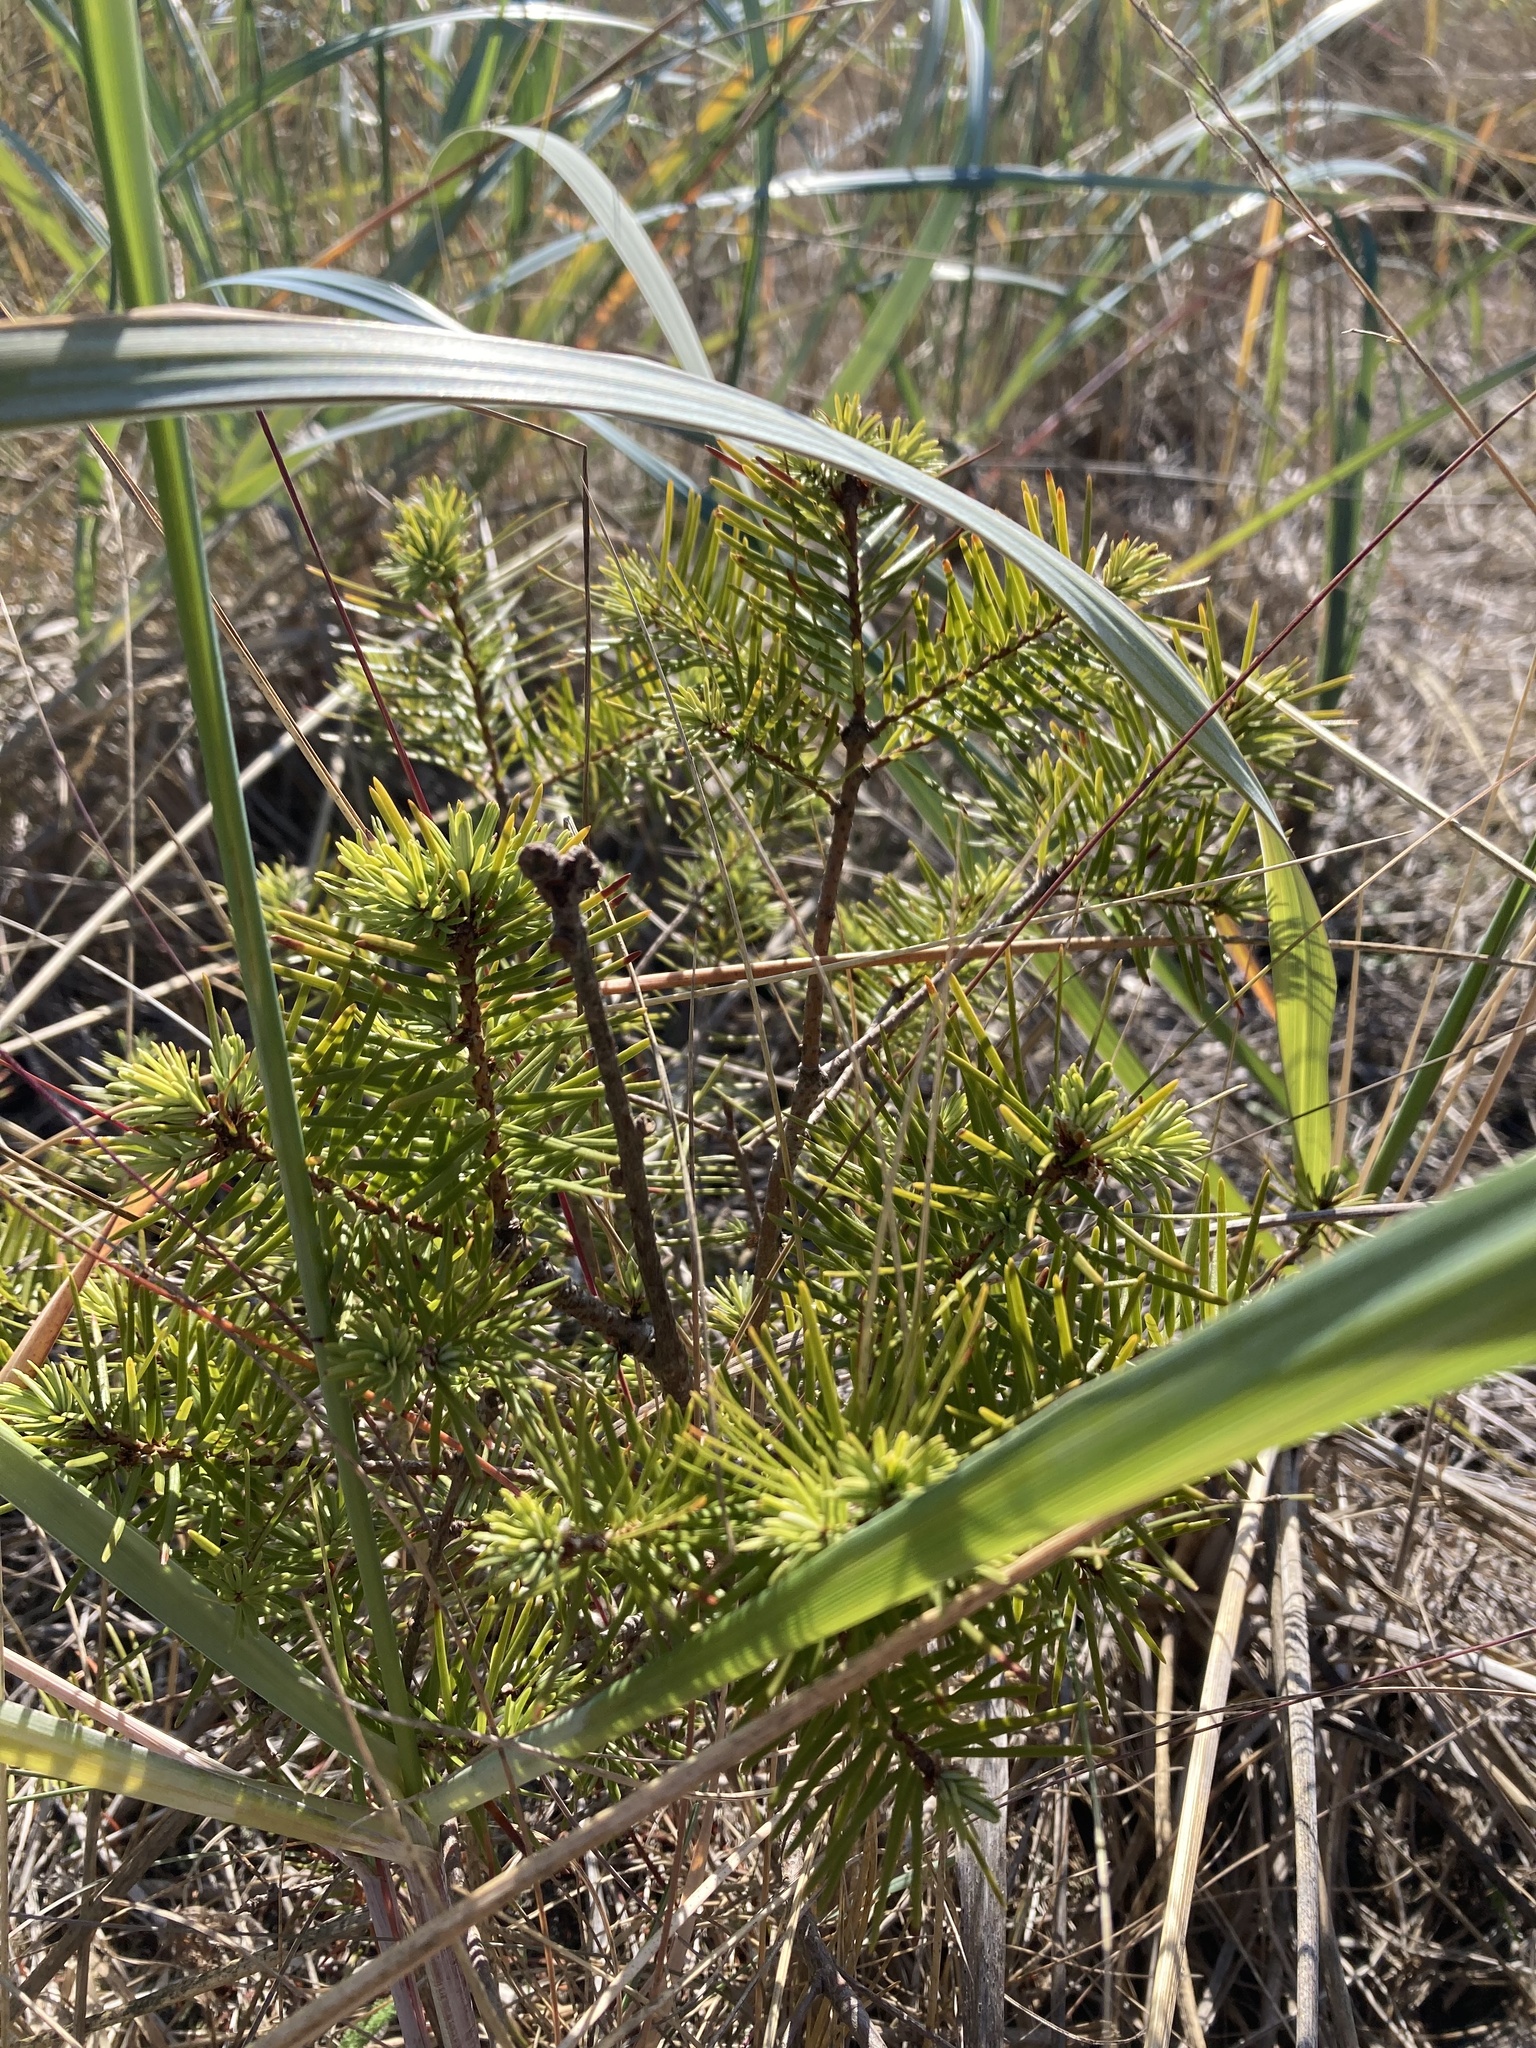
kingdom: Plantae
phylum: Tracheophyta
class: Pinopsida
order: Pinales
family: Pinaceae
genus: Pseudotsuga
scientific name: Pseudotsuga menziesii
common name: Douglas fir
